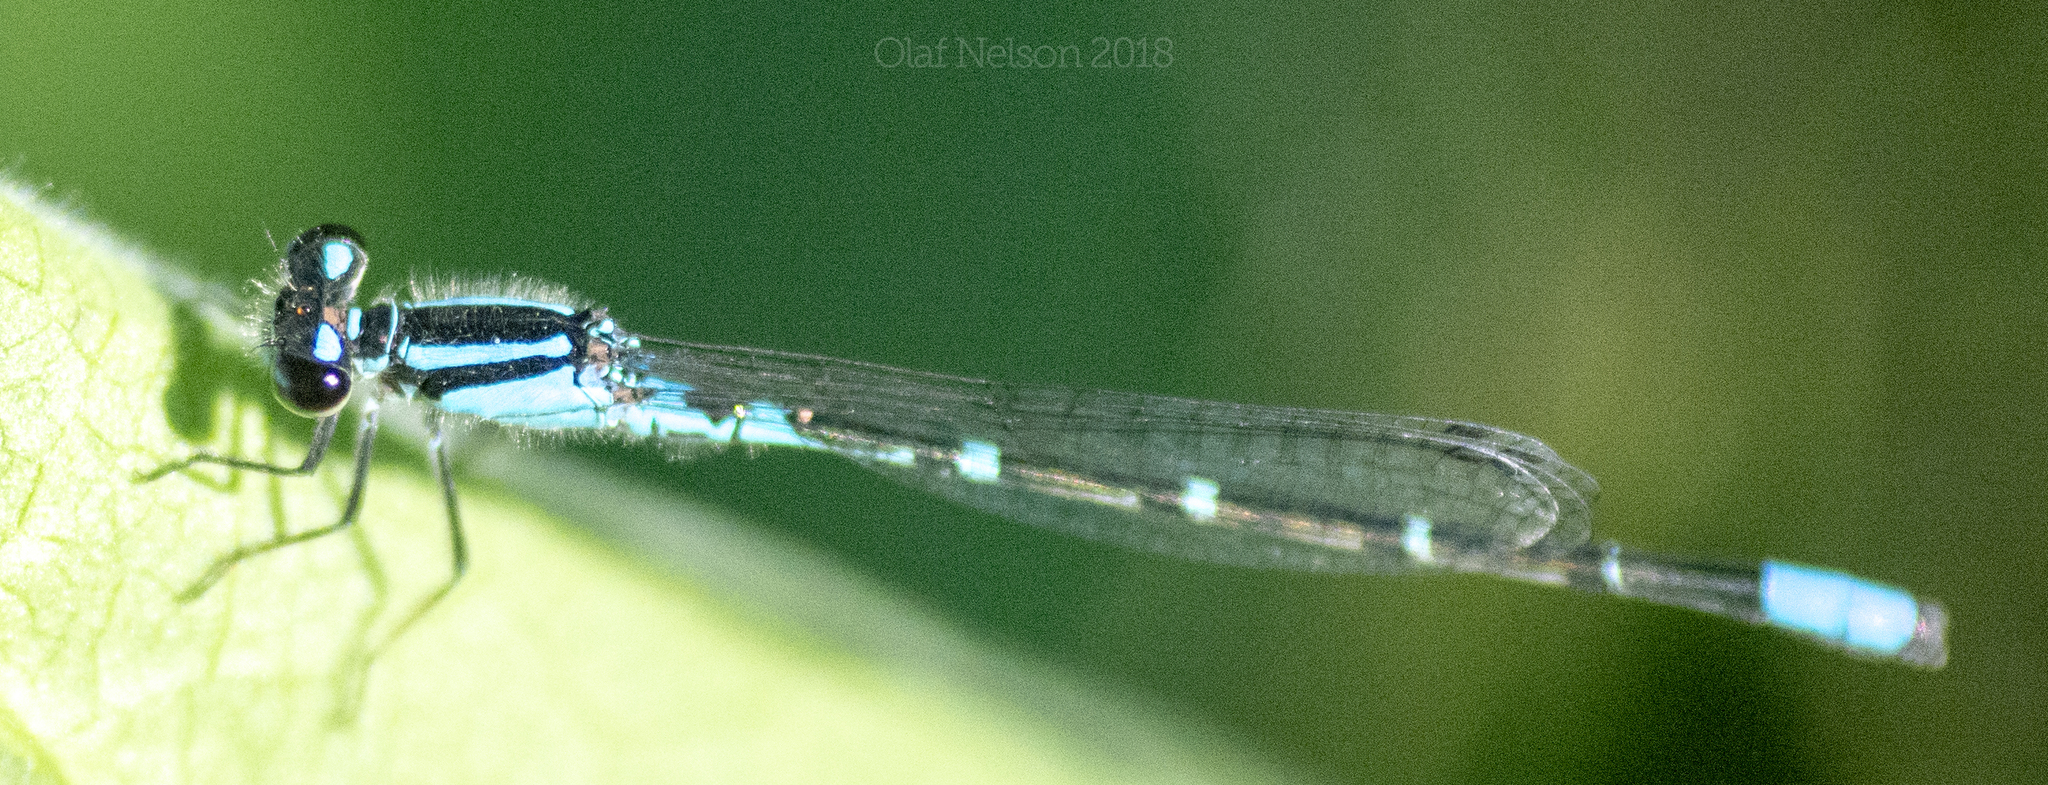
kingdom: Animalia
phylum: Arthropoda
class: Insecta
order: Odonata
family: Coenagrionidae
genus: Enallagma
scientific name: Enallagma geminatum
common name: Skimming bluet
